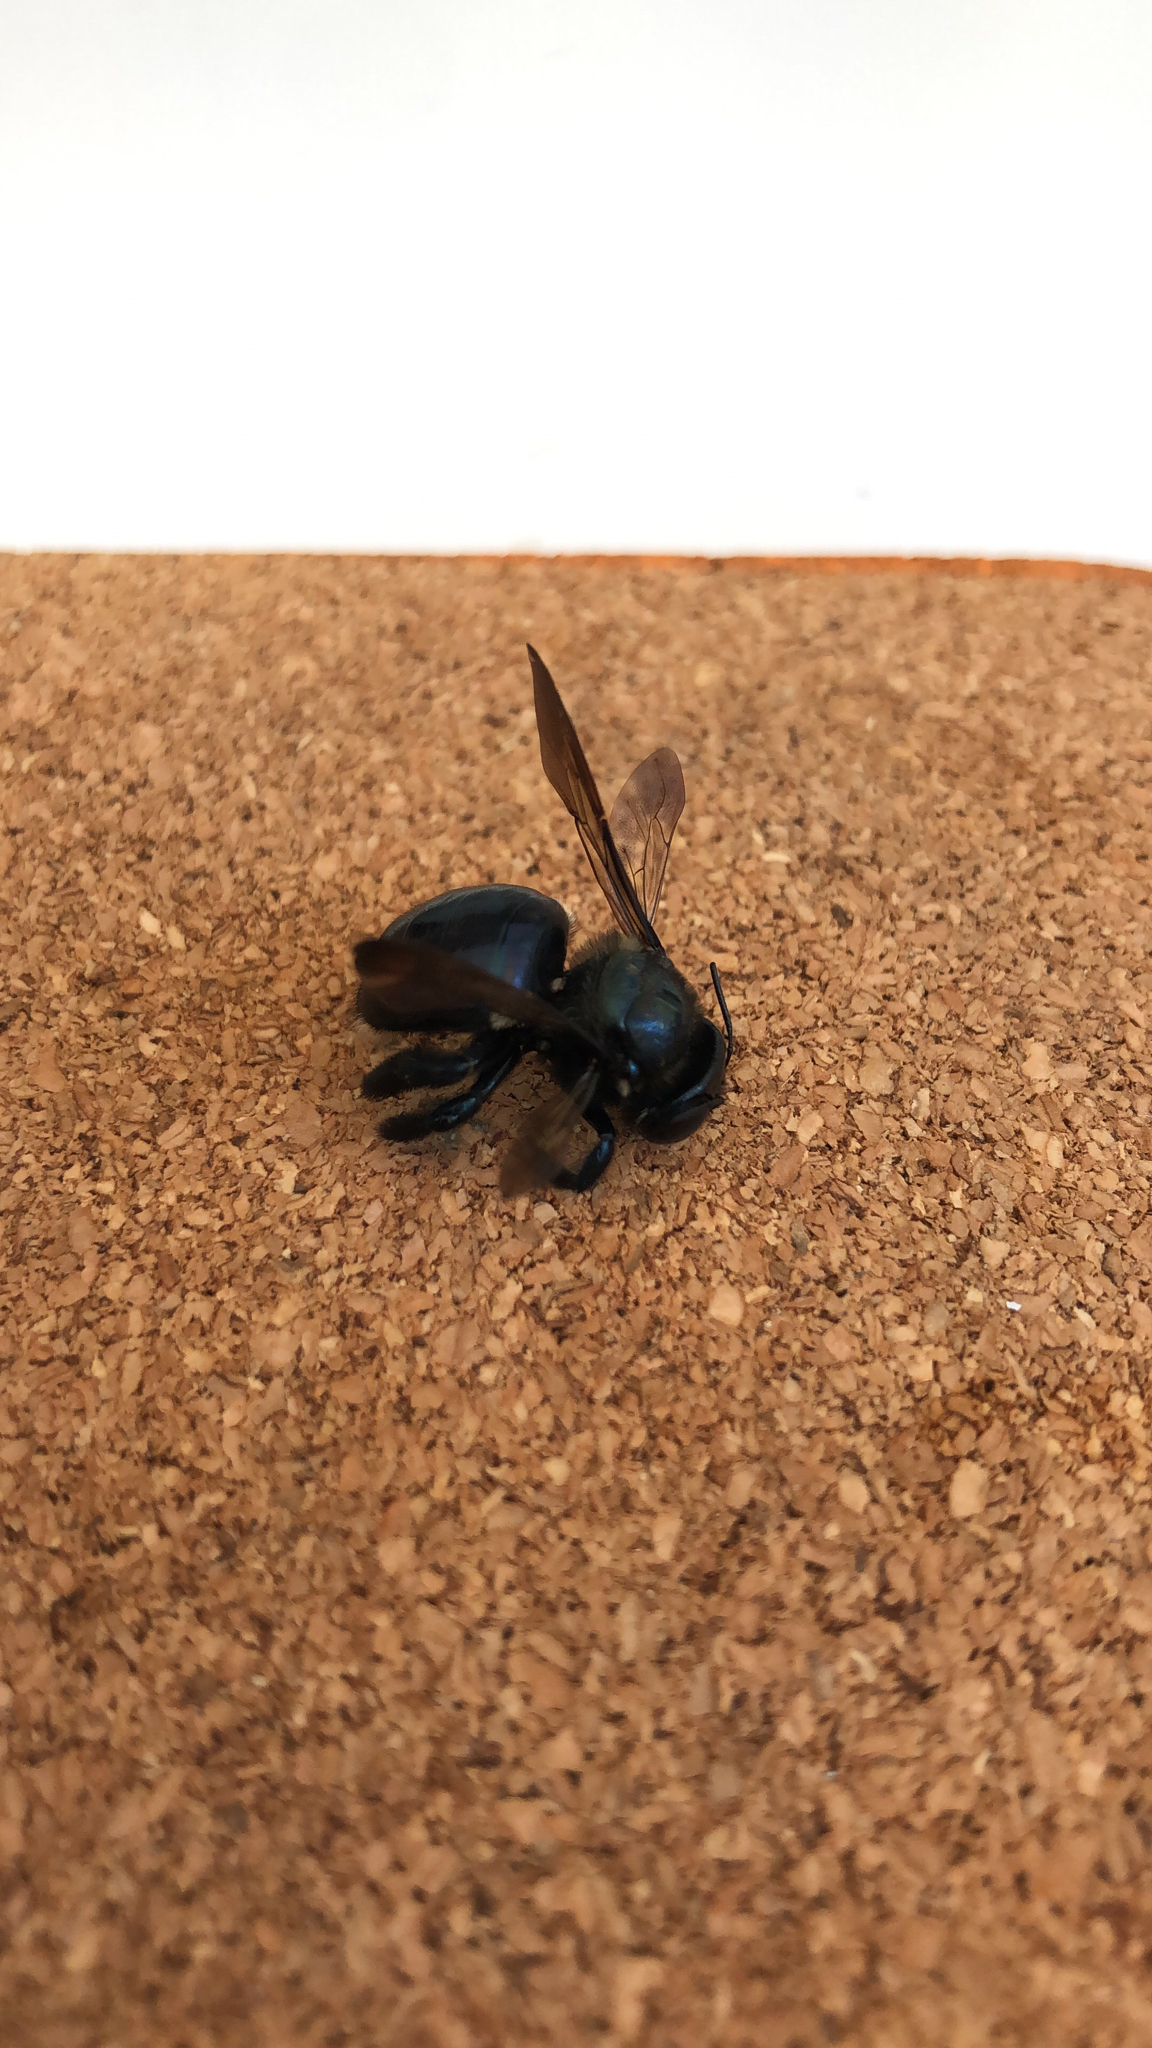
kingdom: Animalia
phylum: Arthropoda
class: Insecta
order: Hymenoptera
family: Apidae
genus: Xylocopa
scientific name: Xylocopa micans
